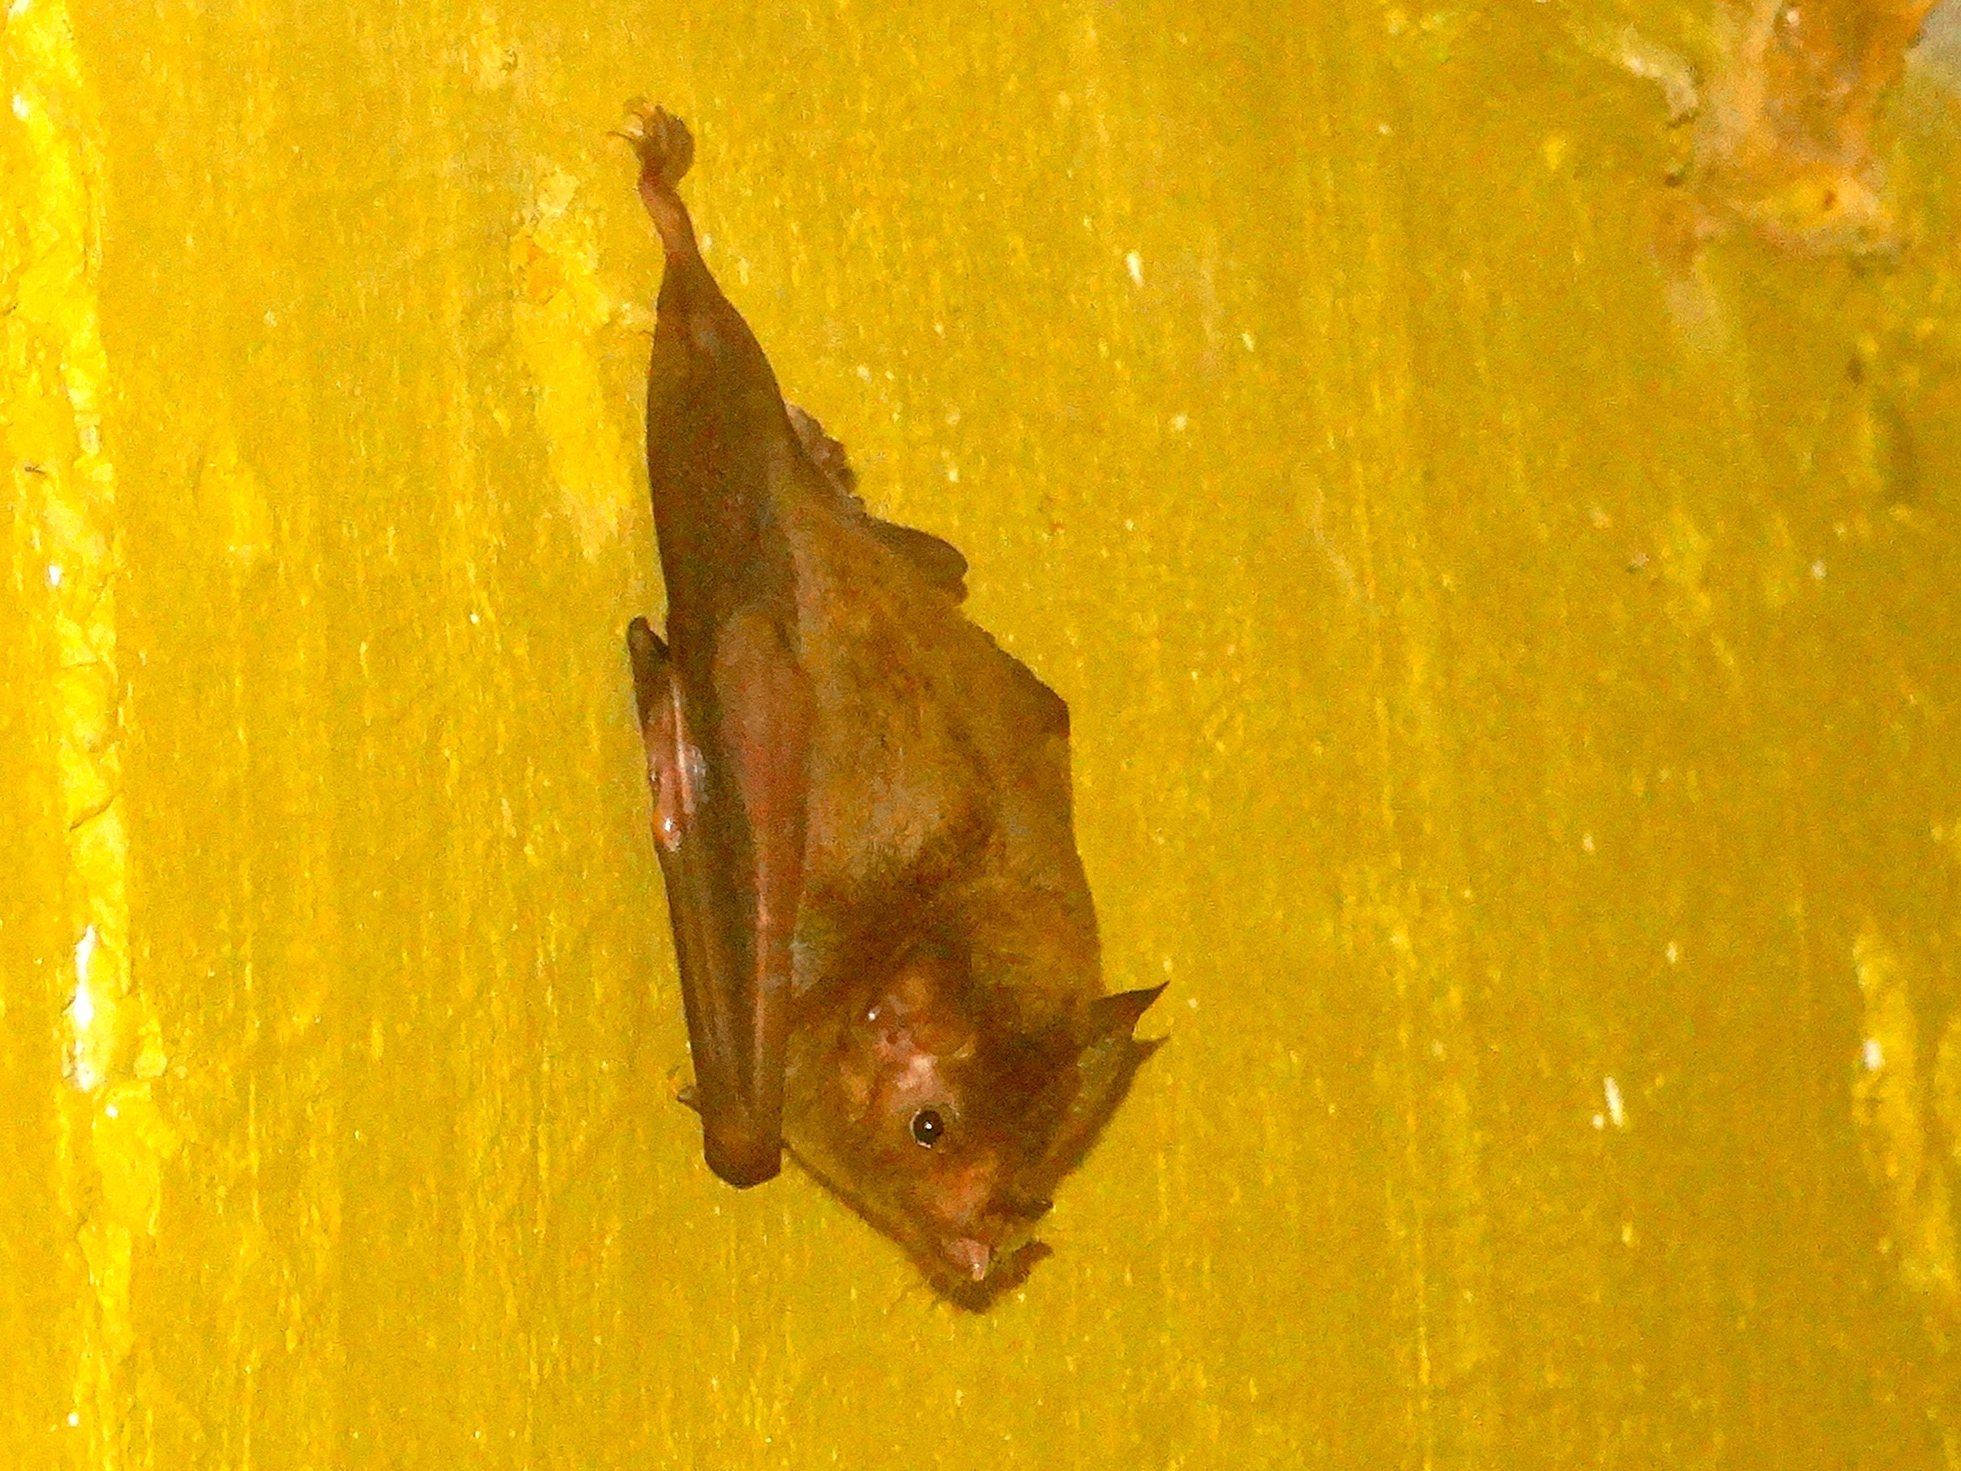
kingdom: Animalia
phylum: Chordata
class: Mammalia
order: Chiroptera
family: Phyllostomidae
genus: Glossophaga
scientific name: Glossophaga soricina
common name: Pallas's long-tongued bat
